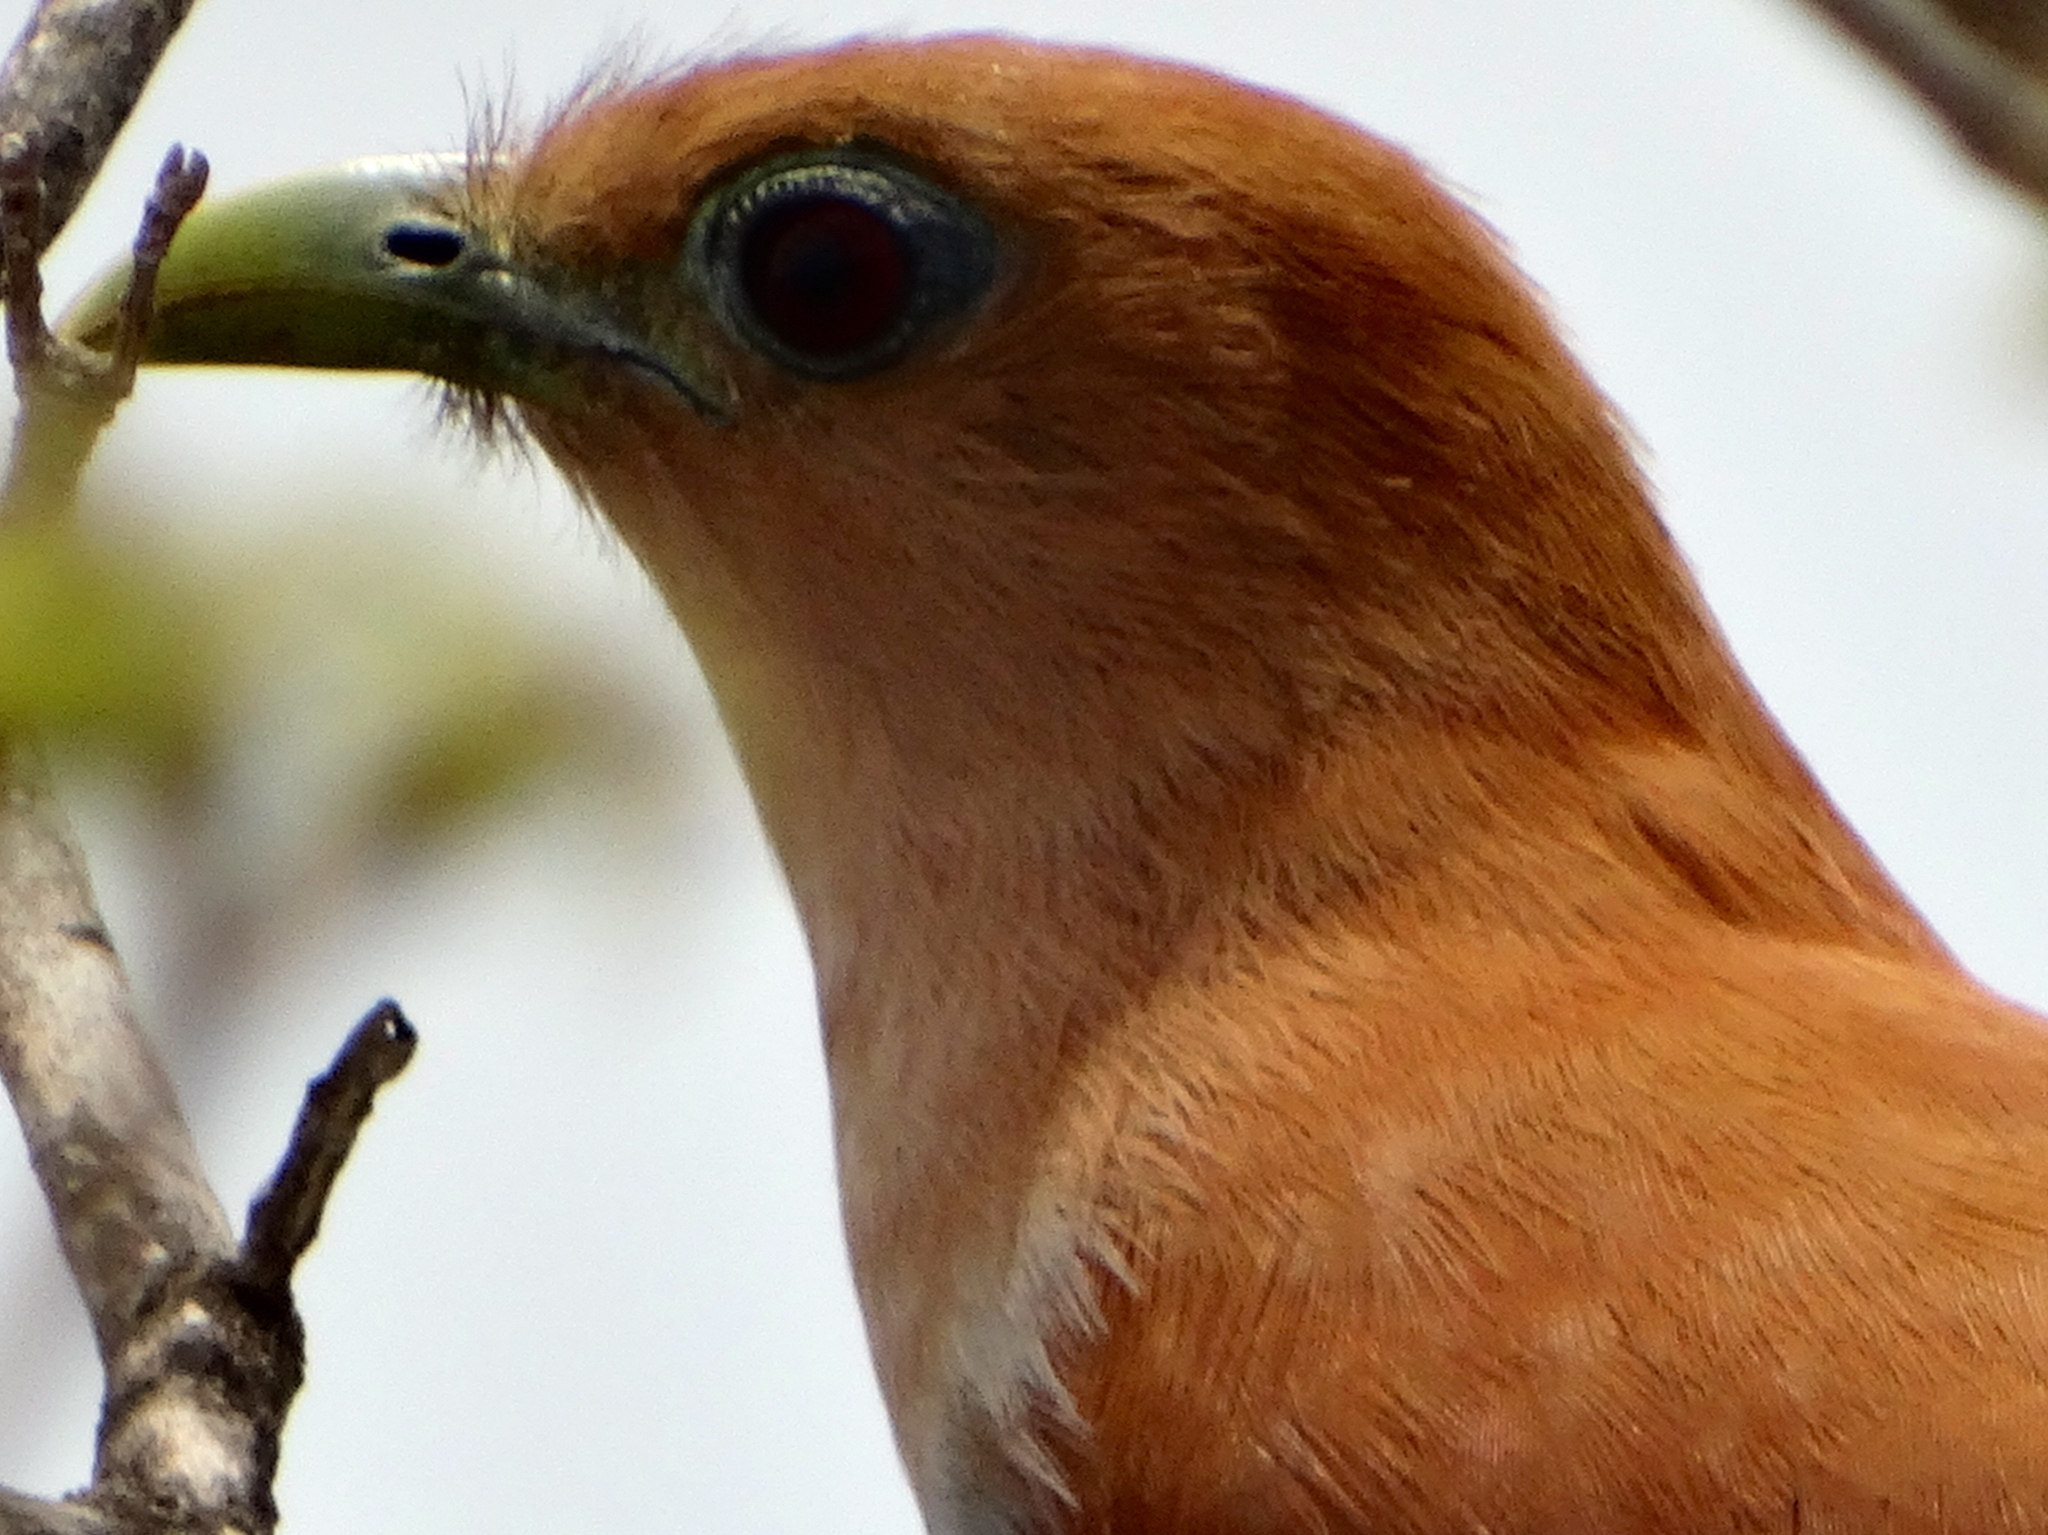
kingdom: Animalia
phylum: Chordata
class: Aves
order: Cuculiformes
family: Cuculidae
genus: Piaya
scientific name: Piaya cayana
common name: Squirrel cuckoo
